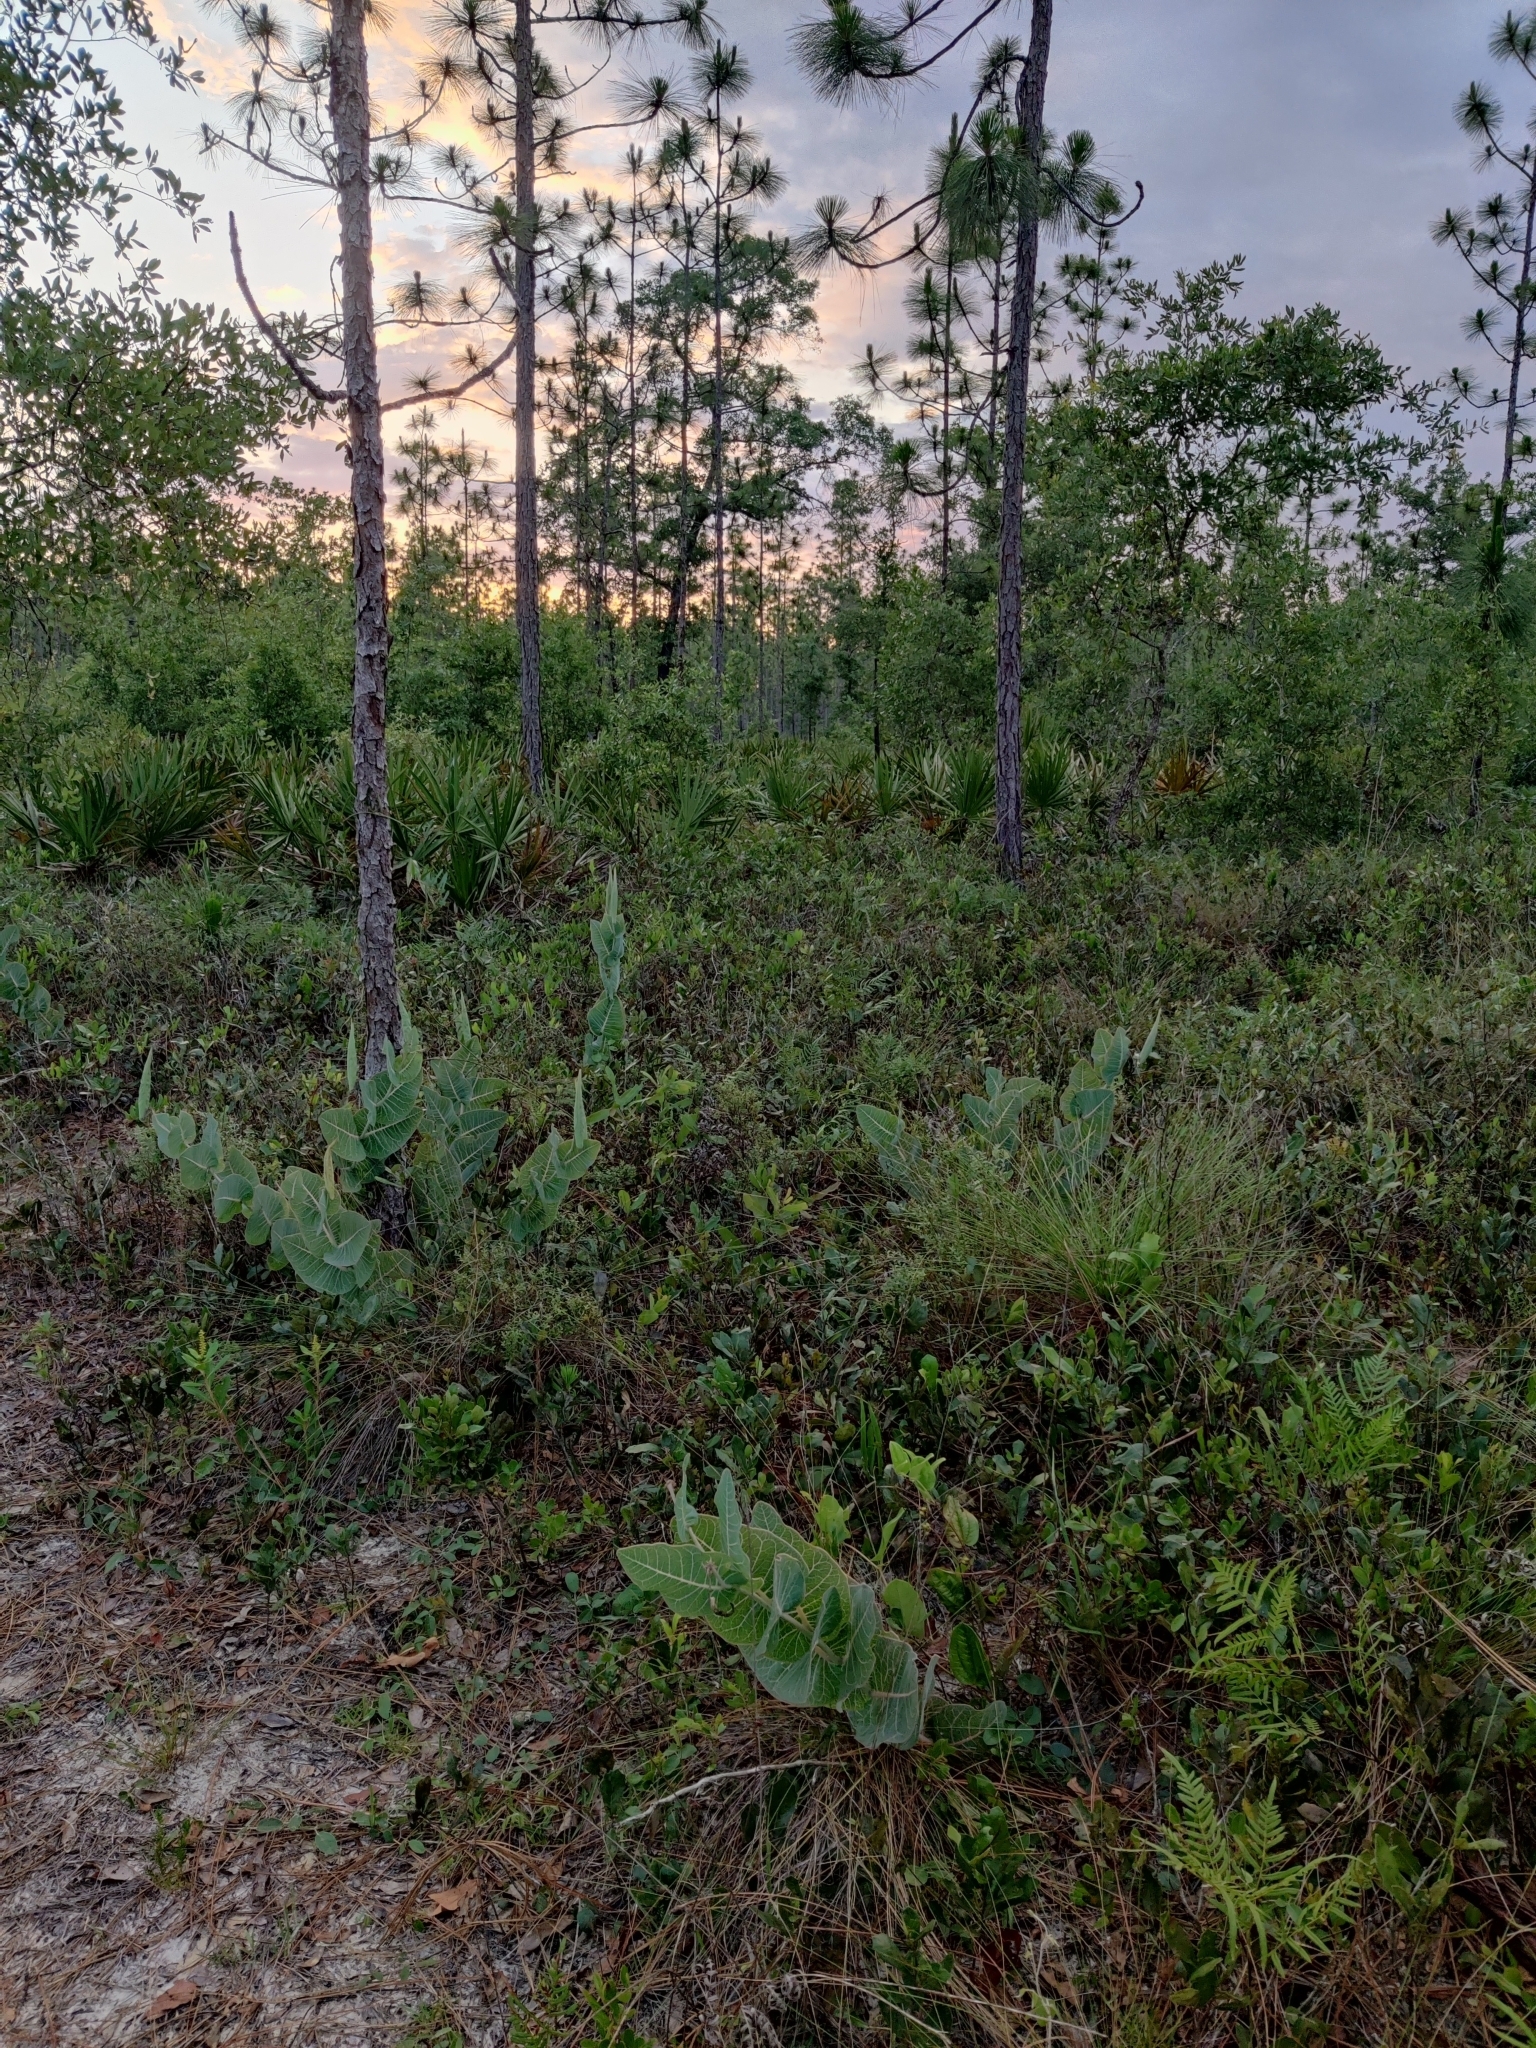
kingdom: Plantae
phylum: Tracheophyta
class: Magnoliopsida
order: Gentianales
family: Apocynaceae
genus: Asclepias
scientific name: Asclepias humistrata
